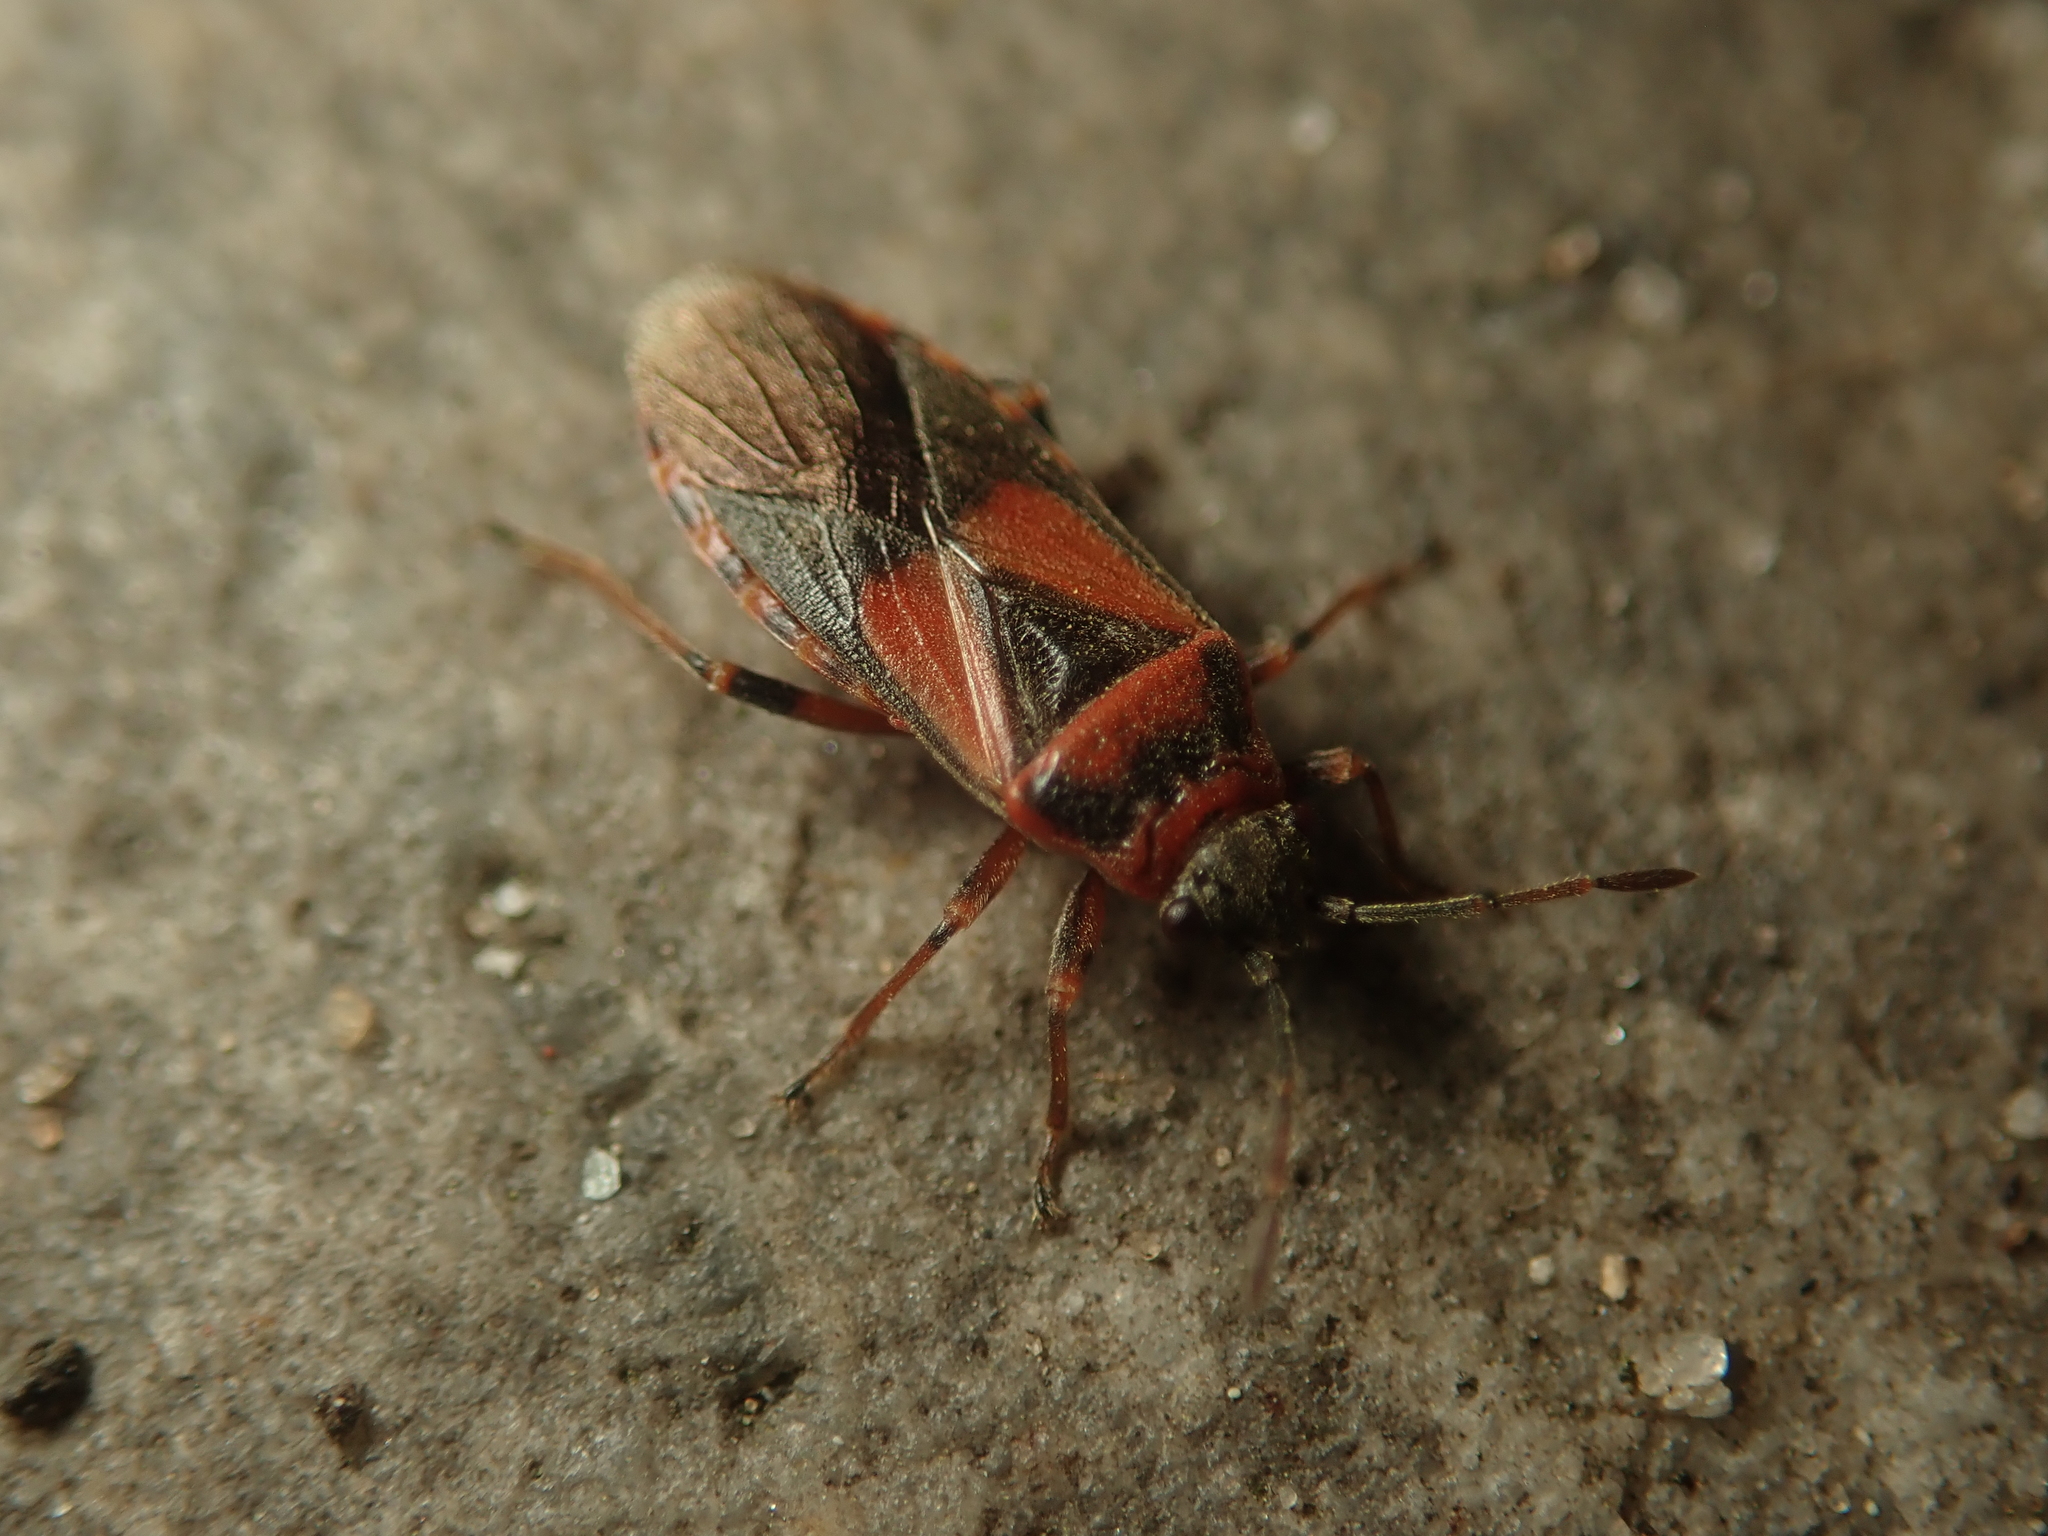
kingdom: Animalia
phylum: Arthropoda
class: Insecta
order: Hemiptera
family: Lygaeidae
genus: Arocatus
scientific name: Arocatus melanocephalus
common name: Lygaeid bug
